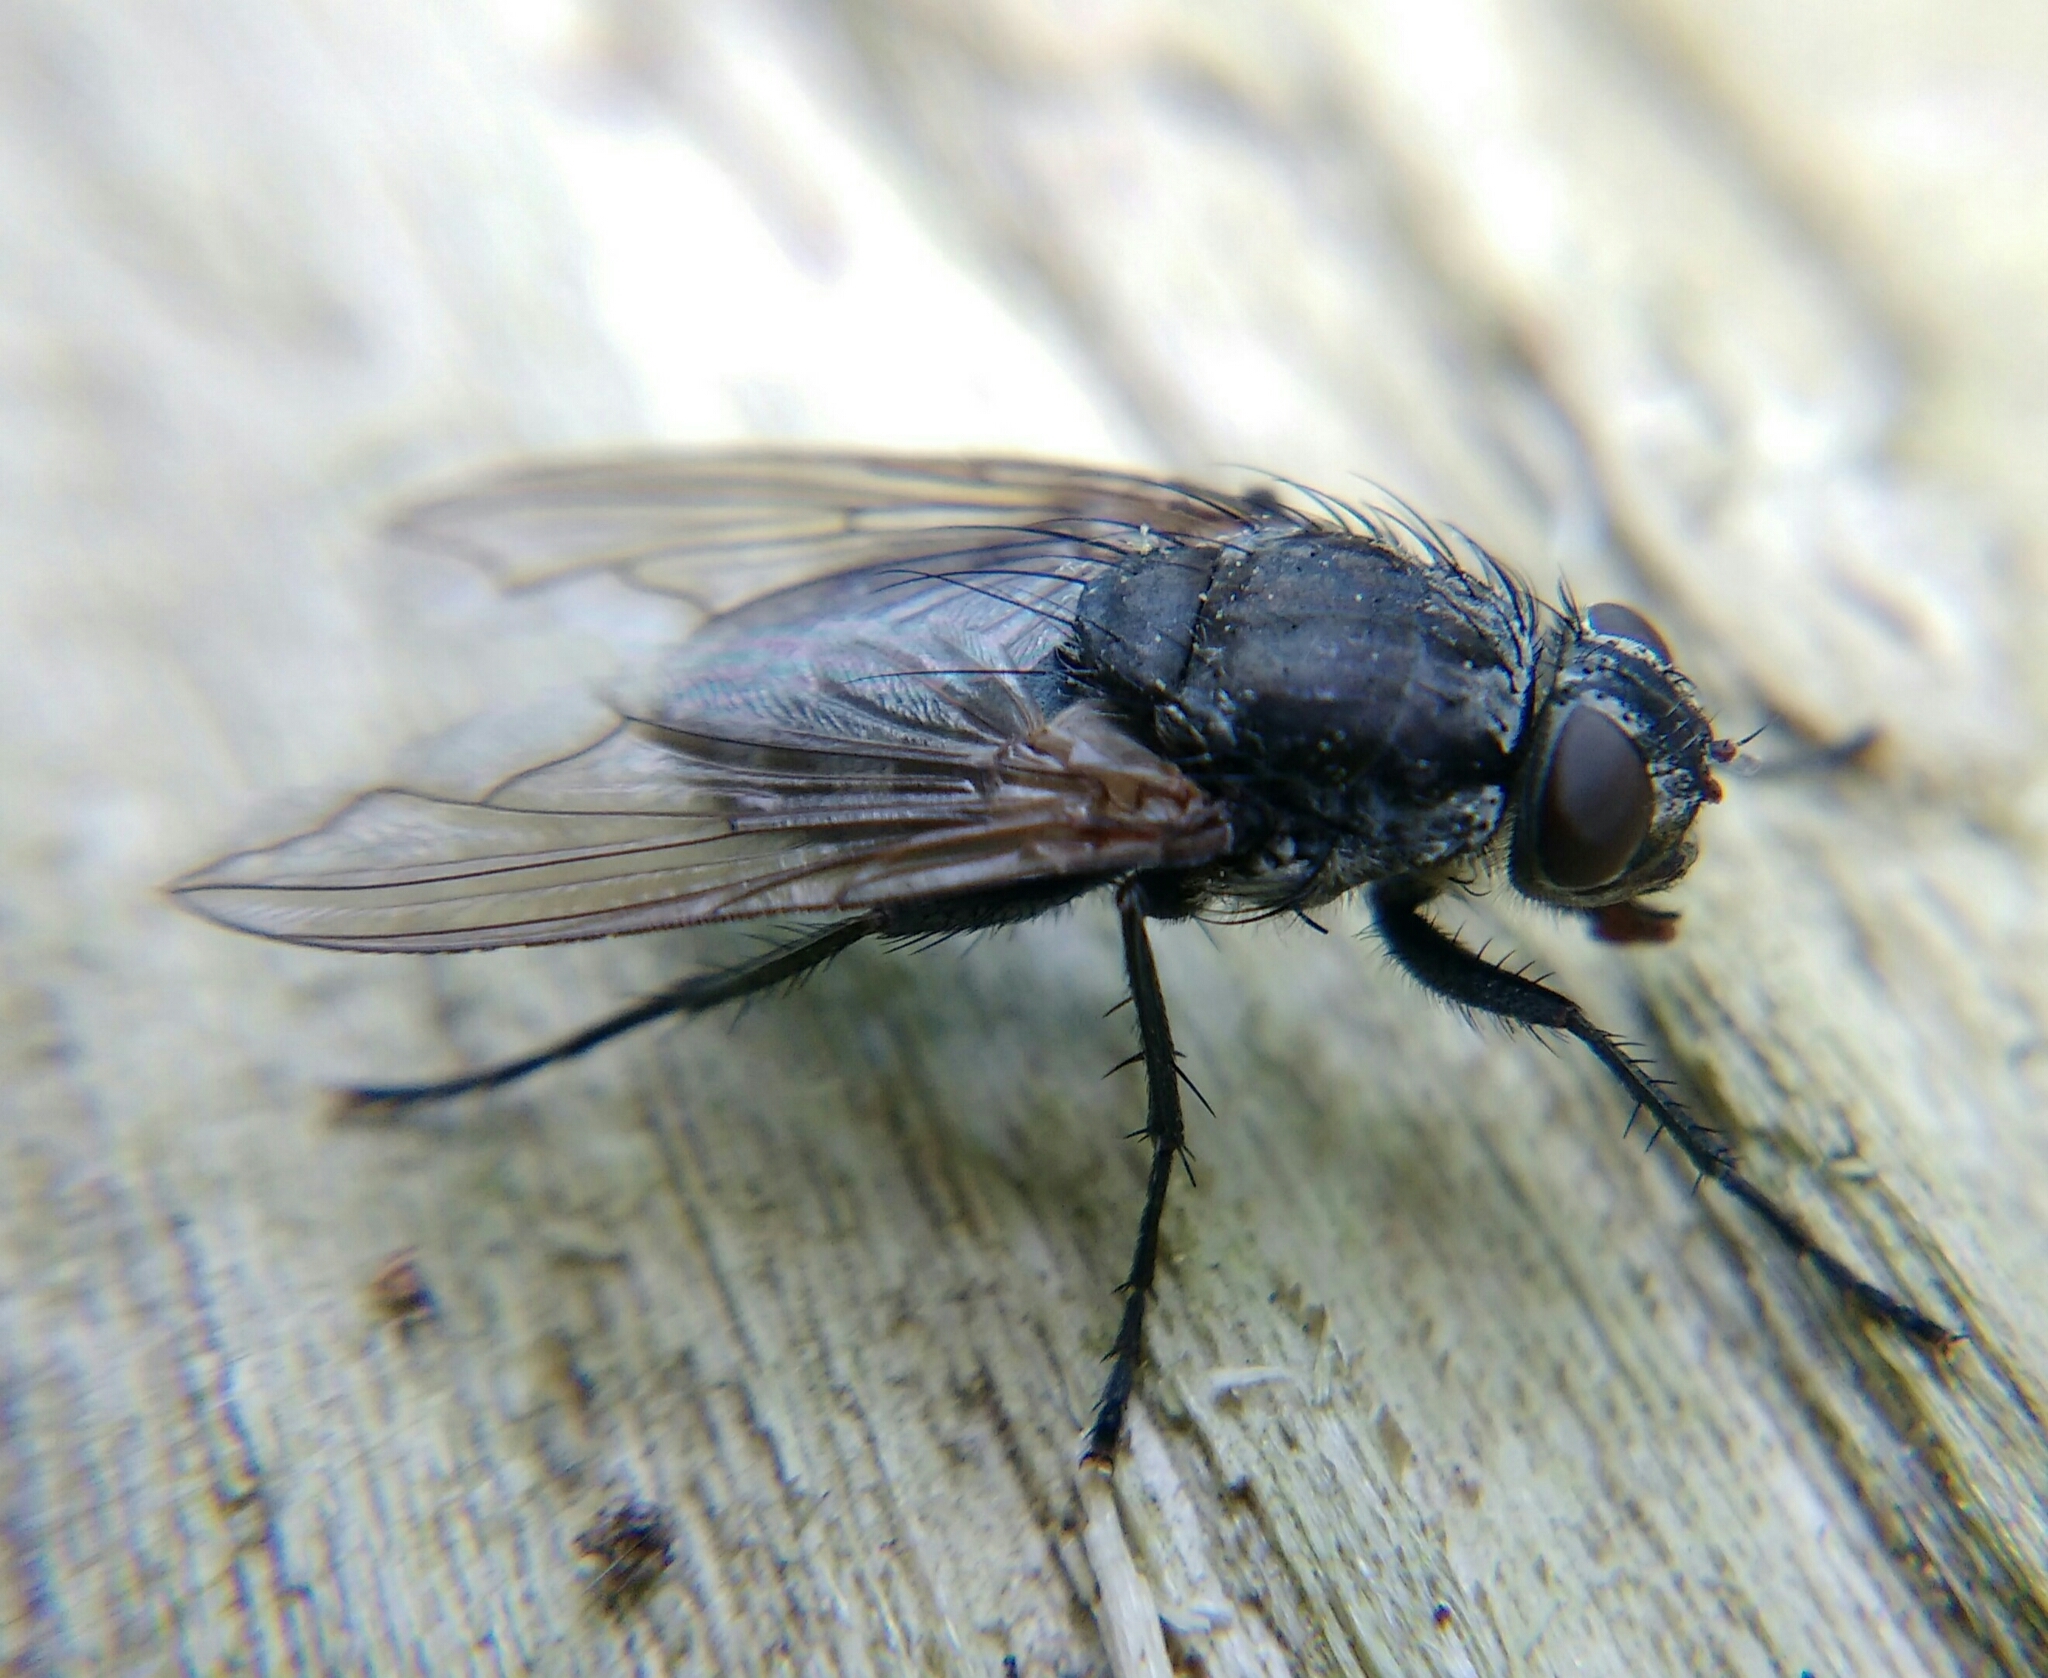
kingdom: Animalia
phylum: Arthropoda
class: Insecta
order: Diptera
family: Polleniidae
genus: Pollenia
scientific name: Pollenia vagabunda
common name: Vagabund cluster fly
